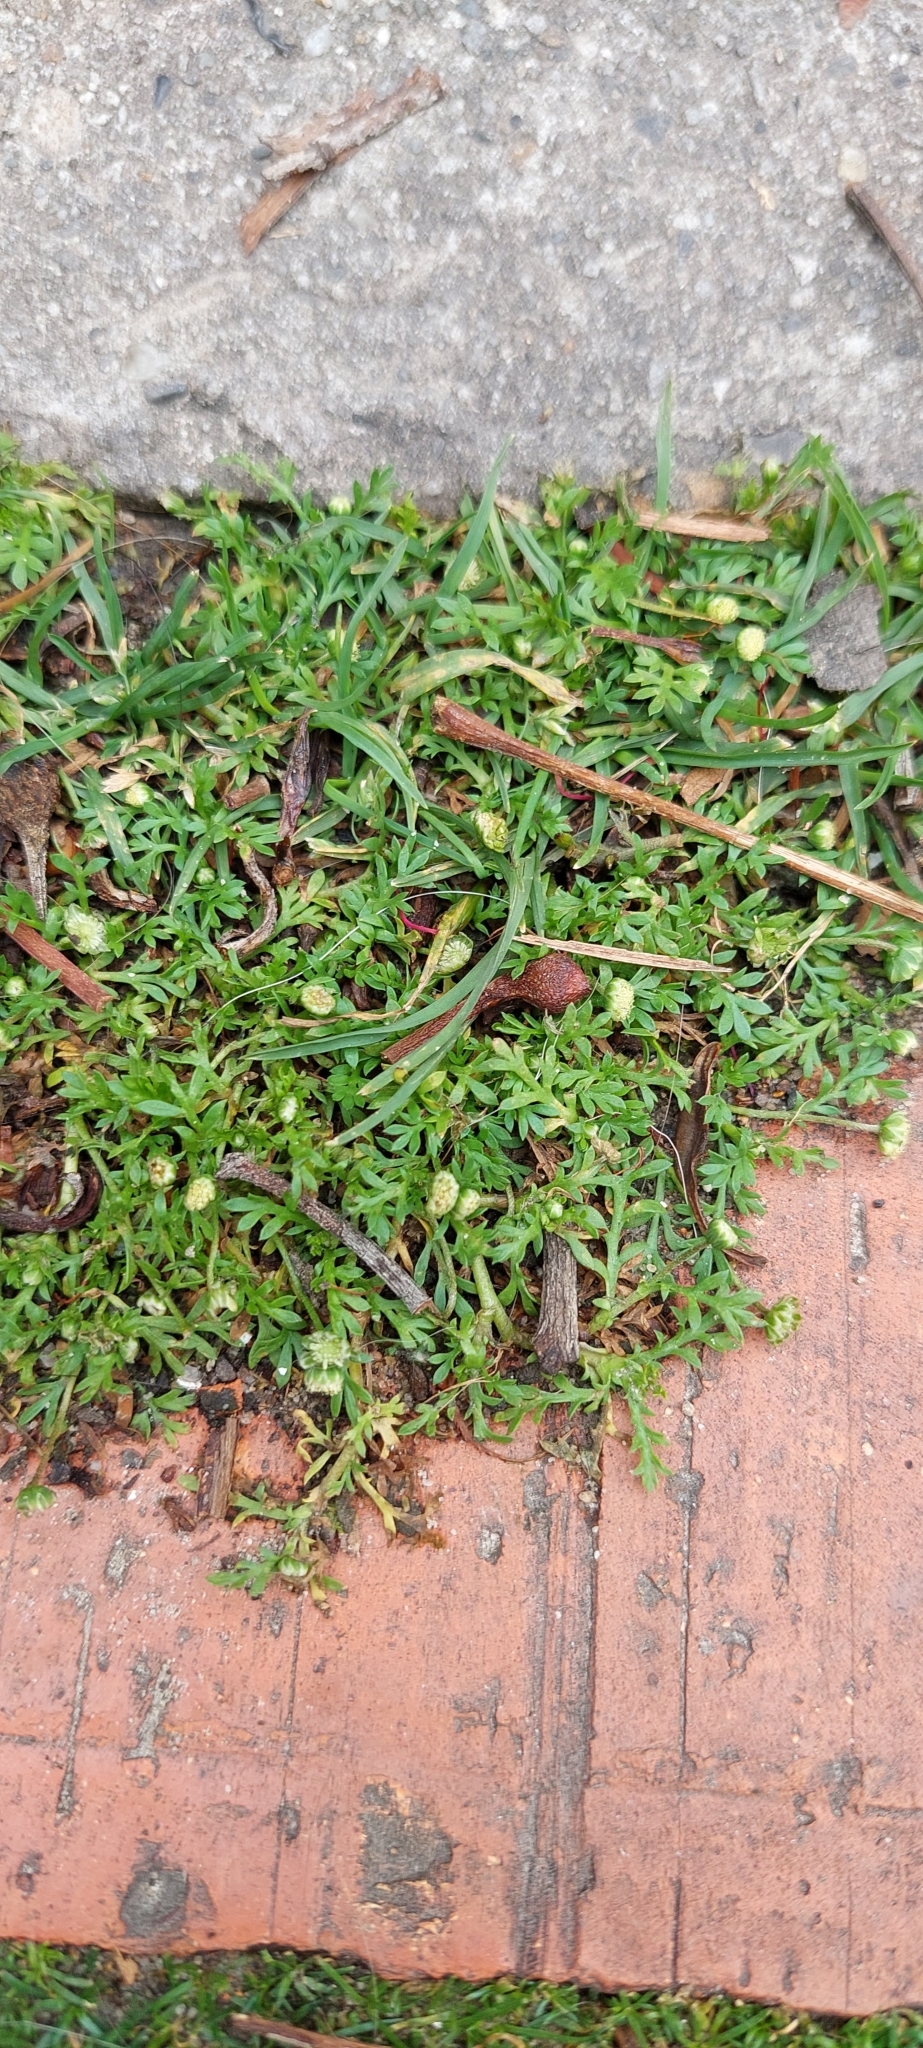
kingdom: Plantae
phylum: Tracheophyta
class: Magnoliopsida
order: Asterales
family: Asteraceae
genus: Cotula
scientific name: Cotula australis
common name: Australian waterbuttons
